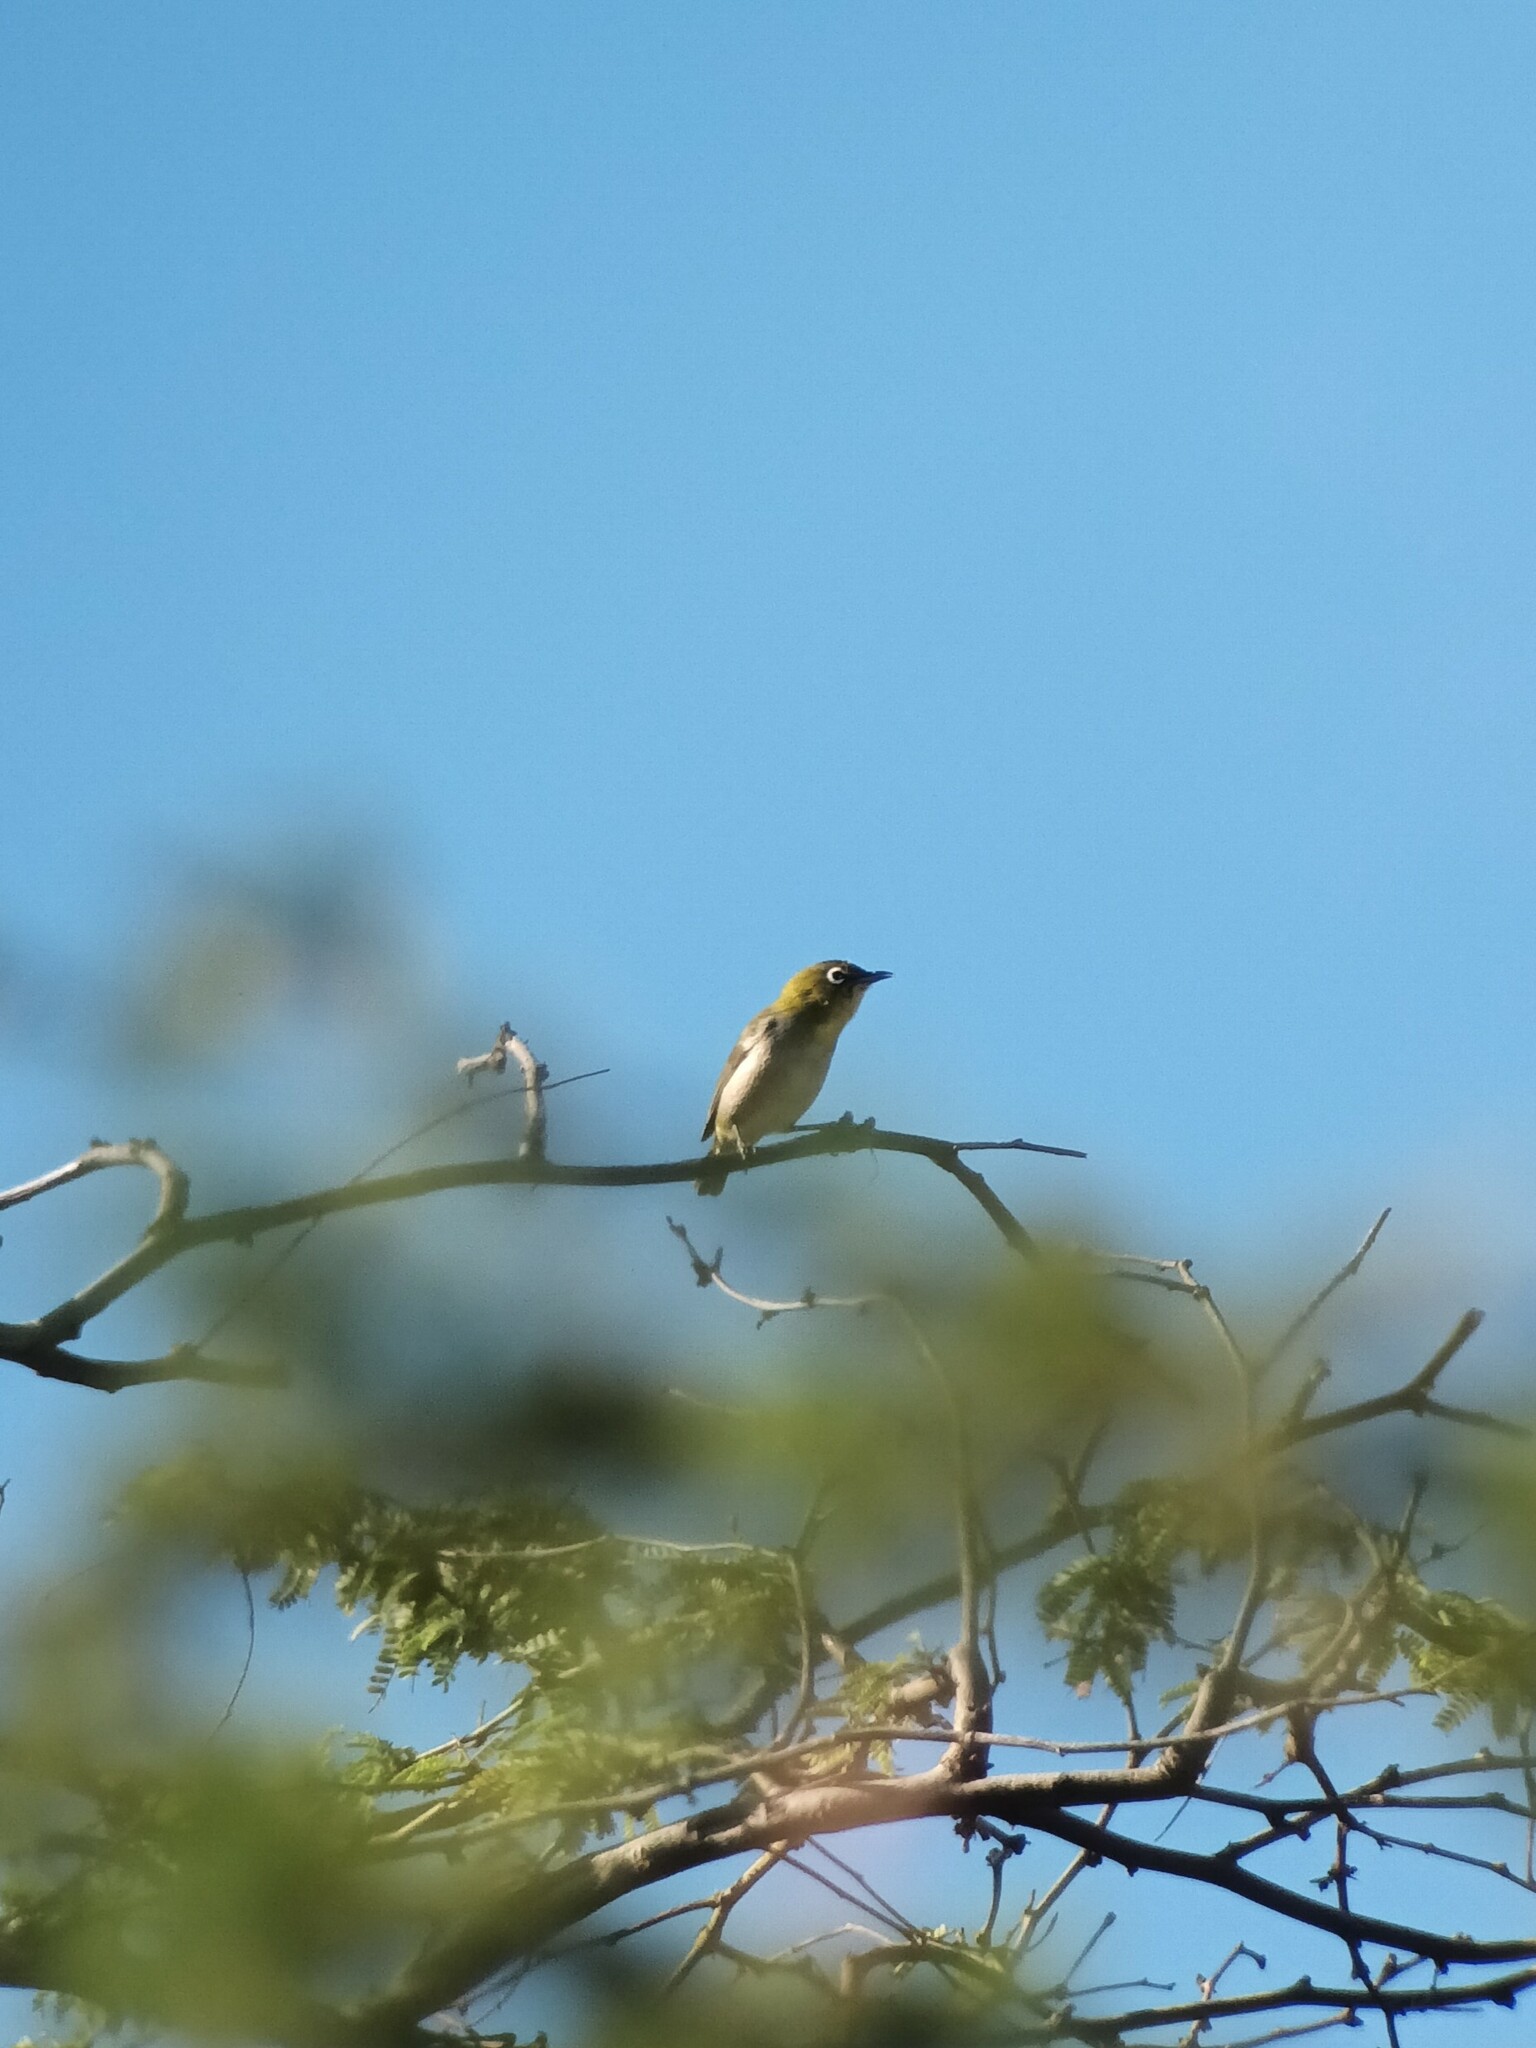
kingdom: Animalia
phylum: Chordata
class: Aves
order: Passeriformes
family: Zosteropidae
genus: Zosterops
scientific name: Zosterops japonicus
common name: Japanese white-eye
